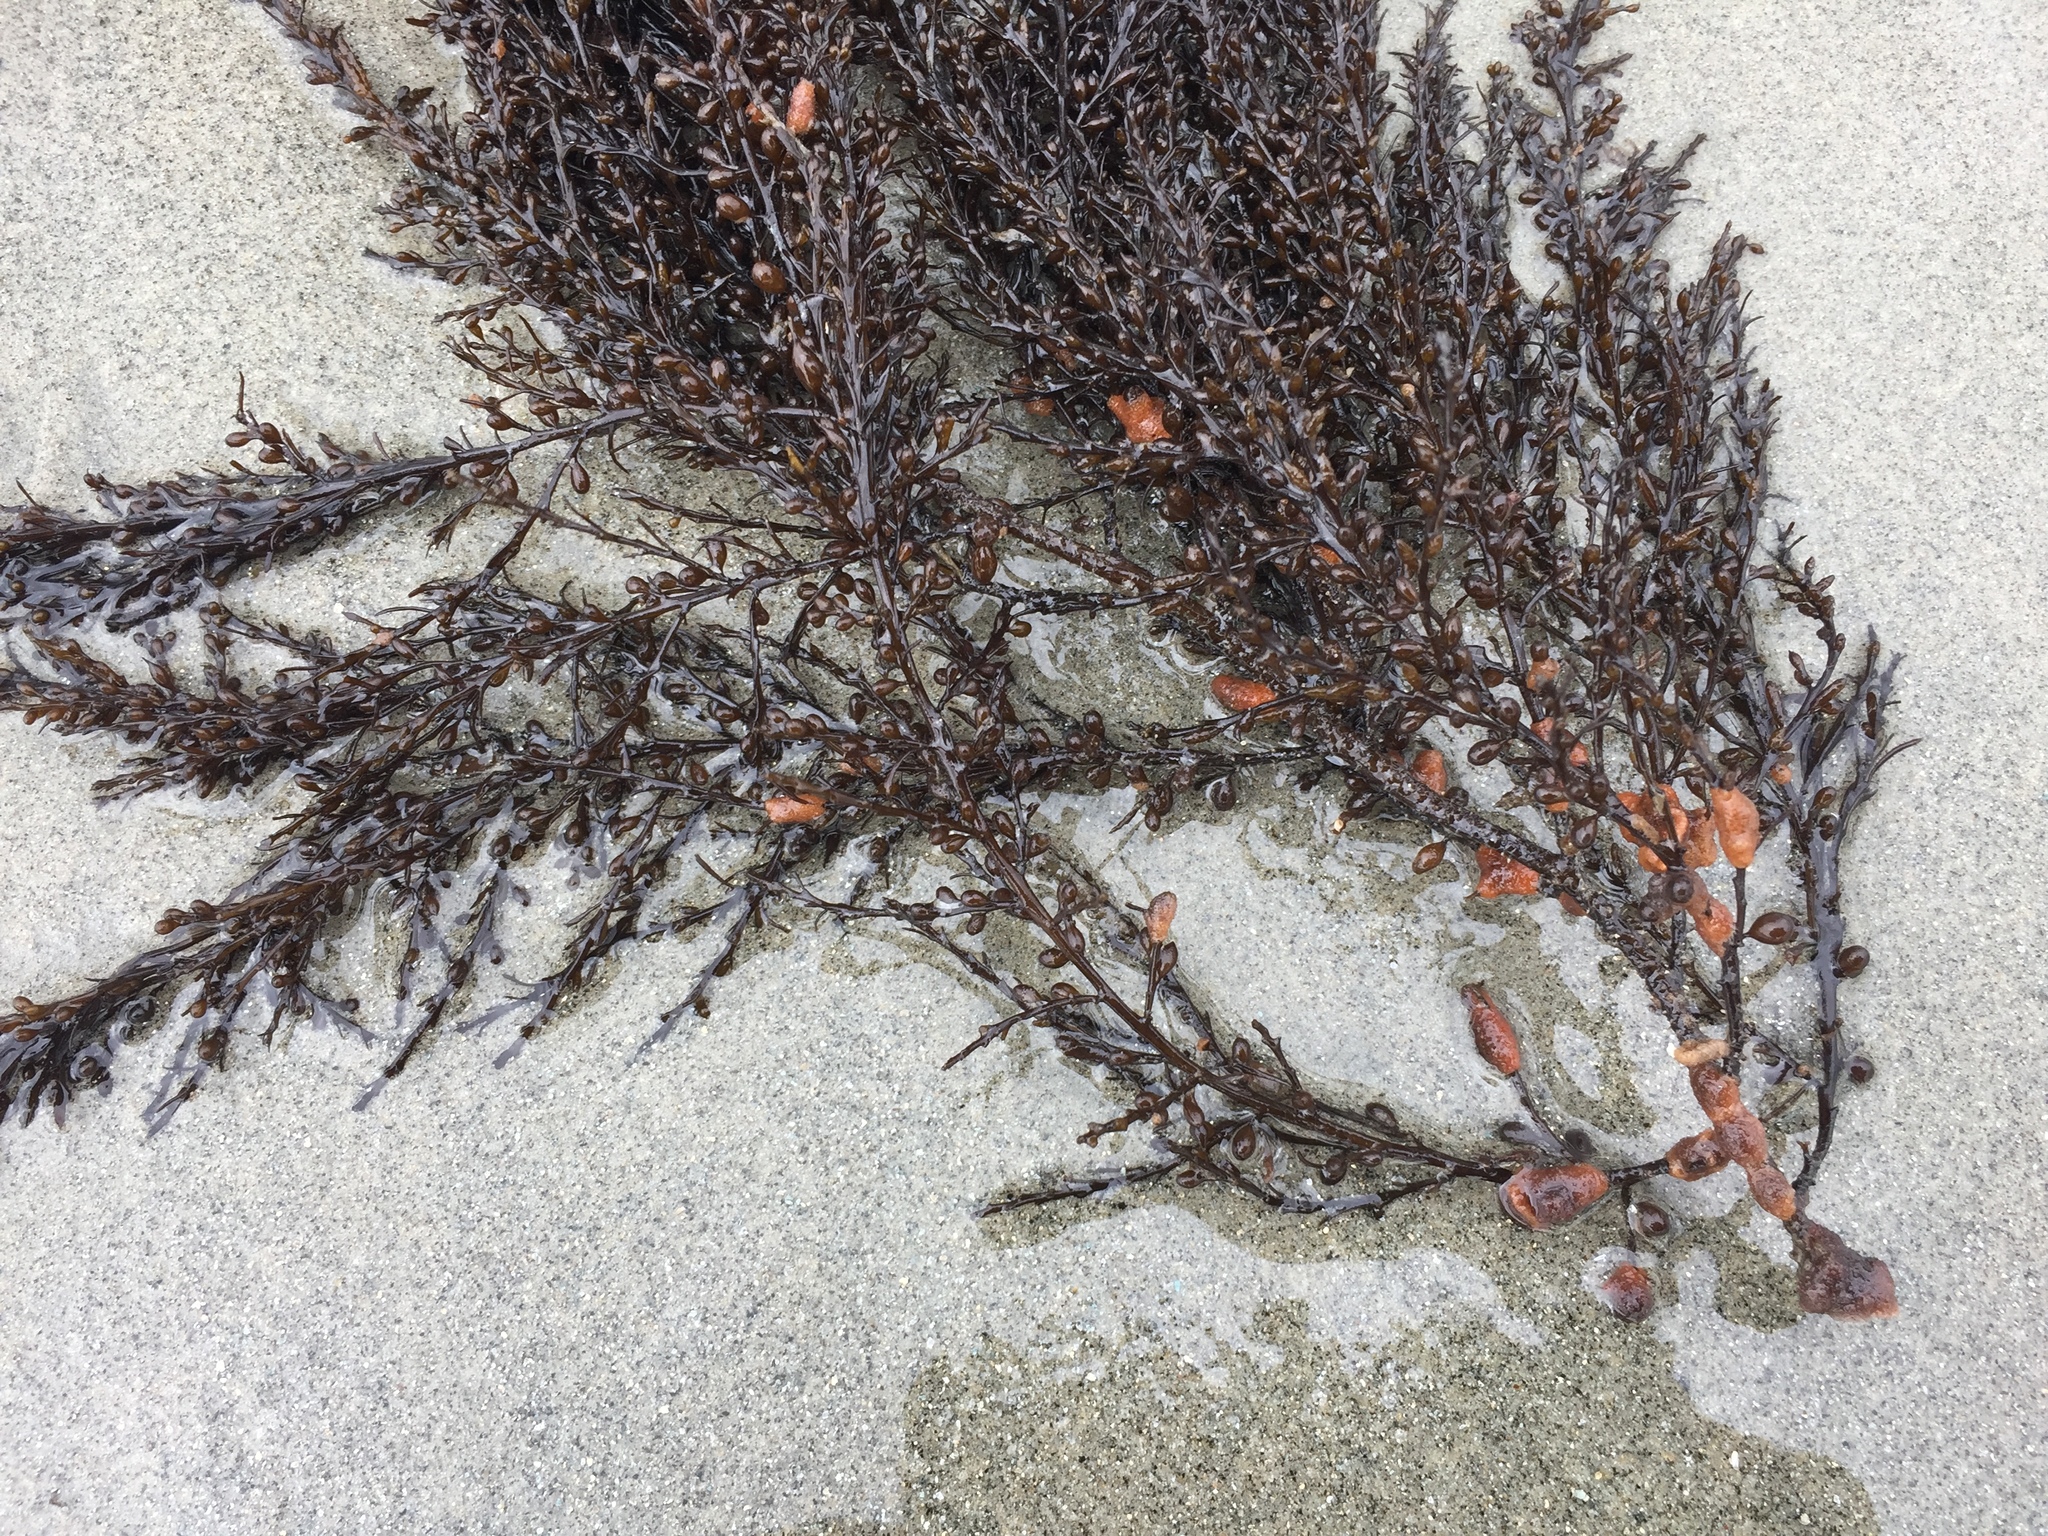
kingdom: Chromista
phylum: Ochrophyta
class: Phaeophyceae
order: Fucales
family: Sargassaceae
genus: Sargassum
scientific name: Sargassum muticum
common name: Japweed
